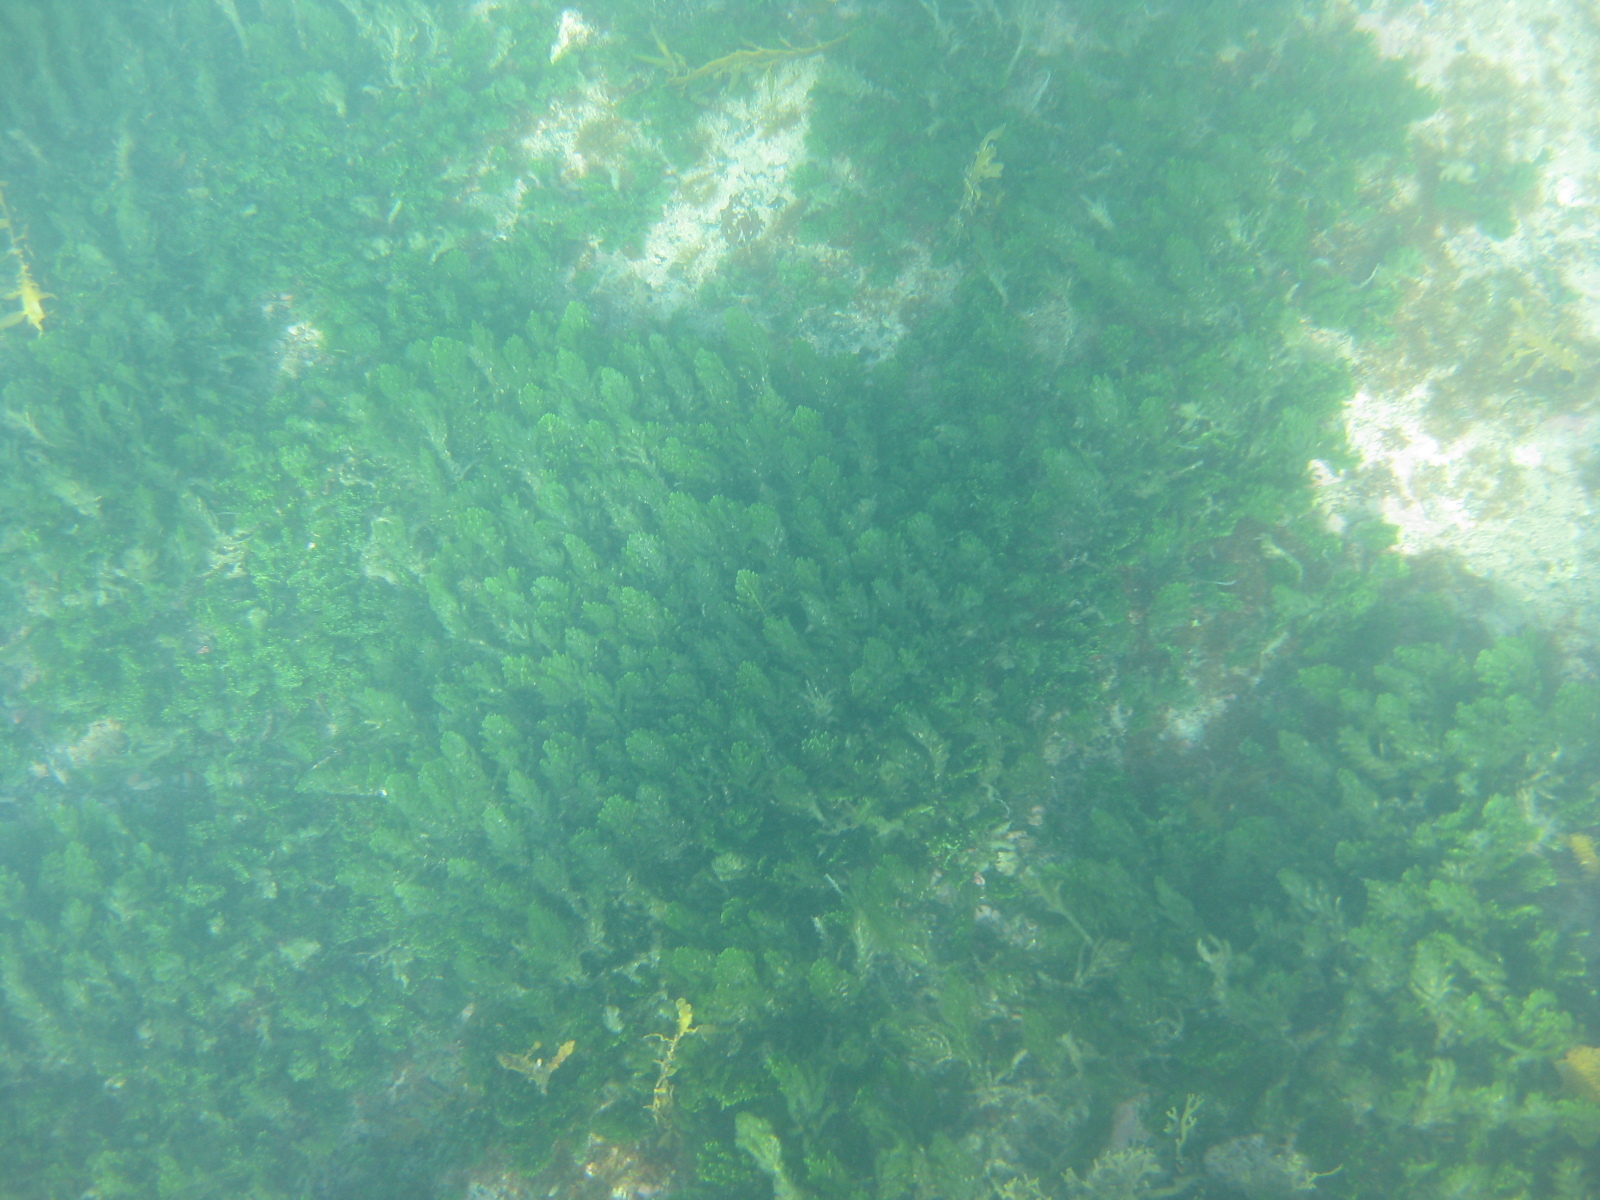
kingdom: Plantae
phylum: Chlorophyta
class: Ulvophyceae
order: Bryopsidales
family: Caulerpaceae
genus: Caulerpa
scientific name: Caulerpa flexilis
